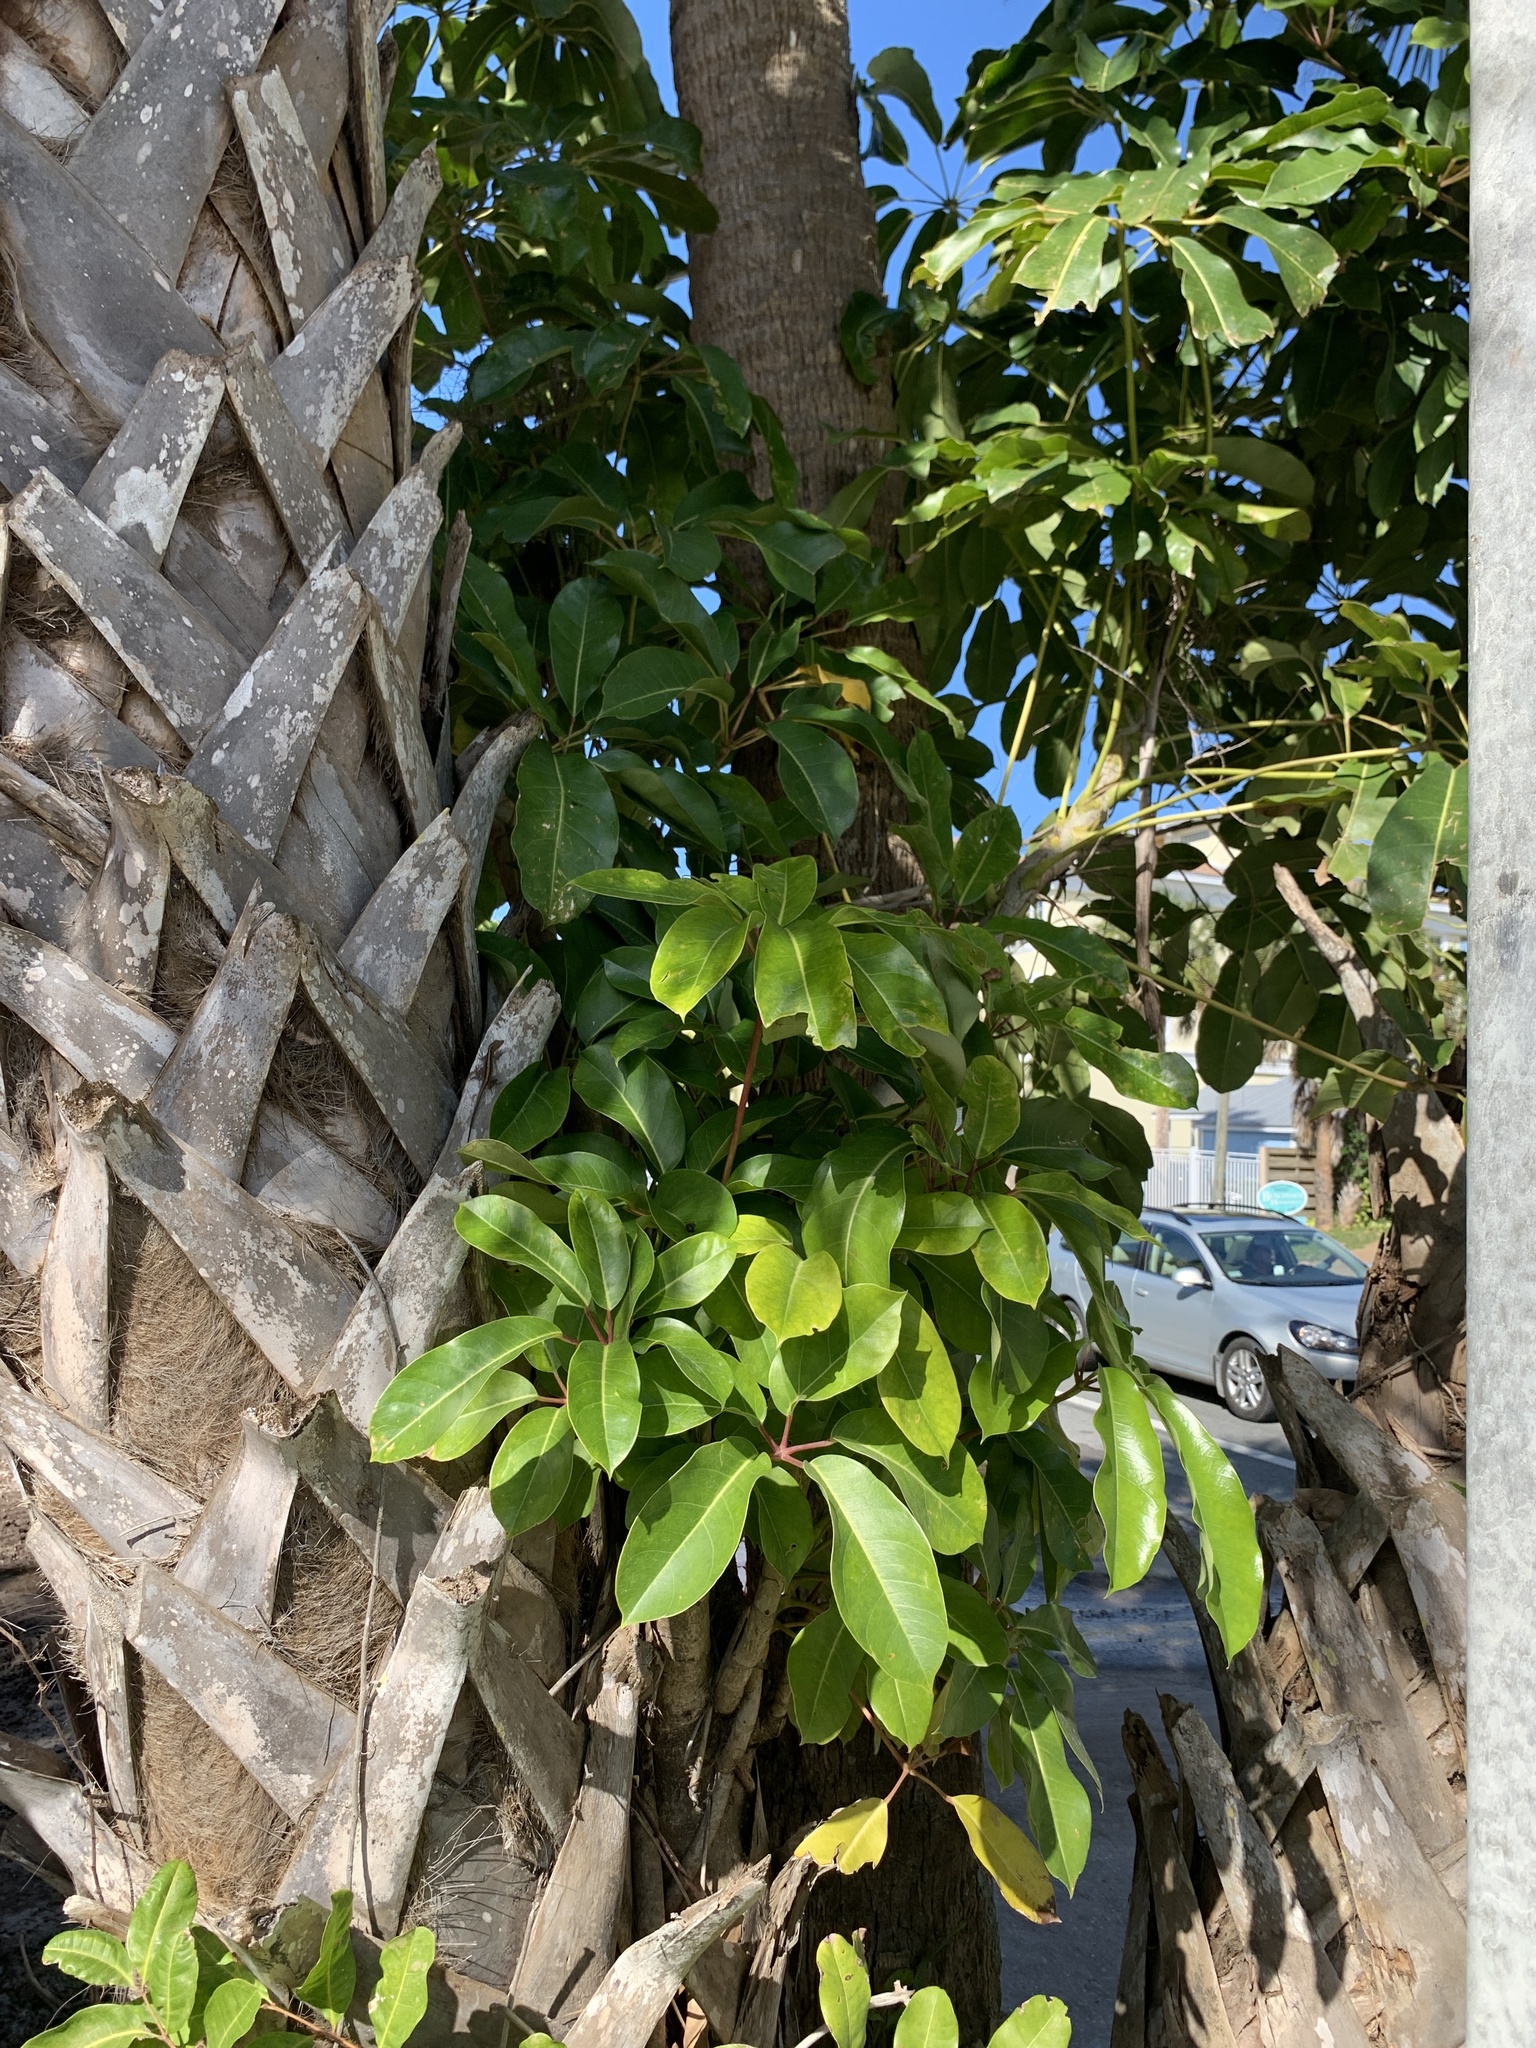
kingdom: Plantae
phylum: Tracheophyta
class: Magnoliopsida
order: Apiales
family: Araliaceae
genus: Heptapleurum
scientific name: Heptapleurum actinophyllum
